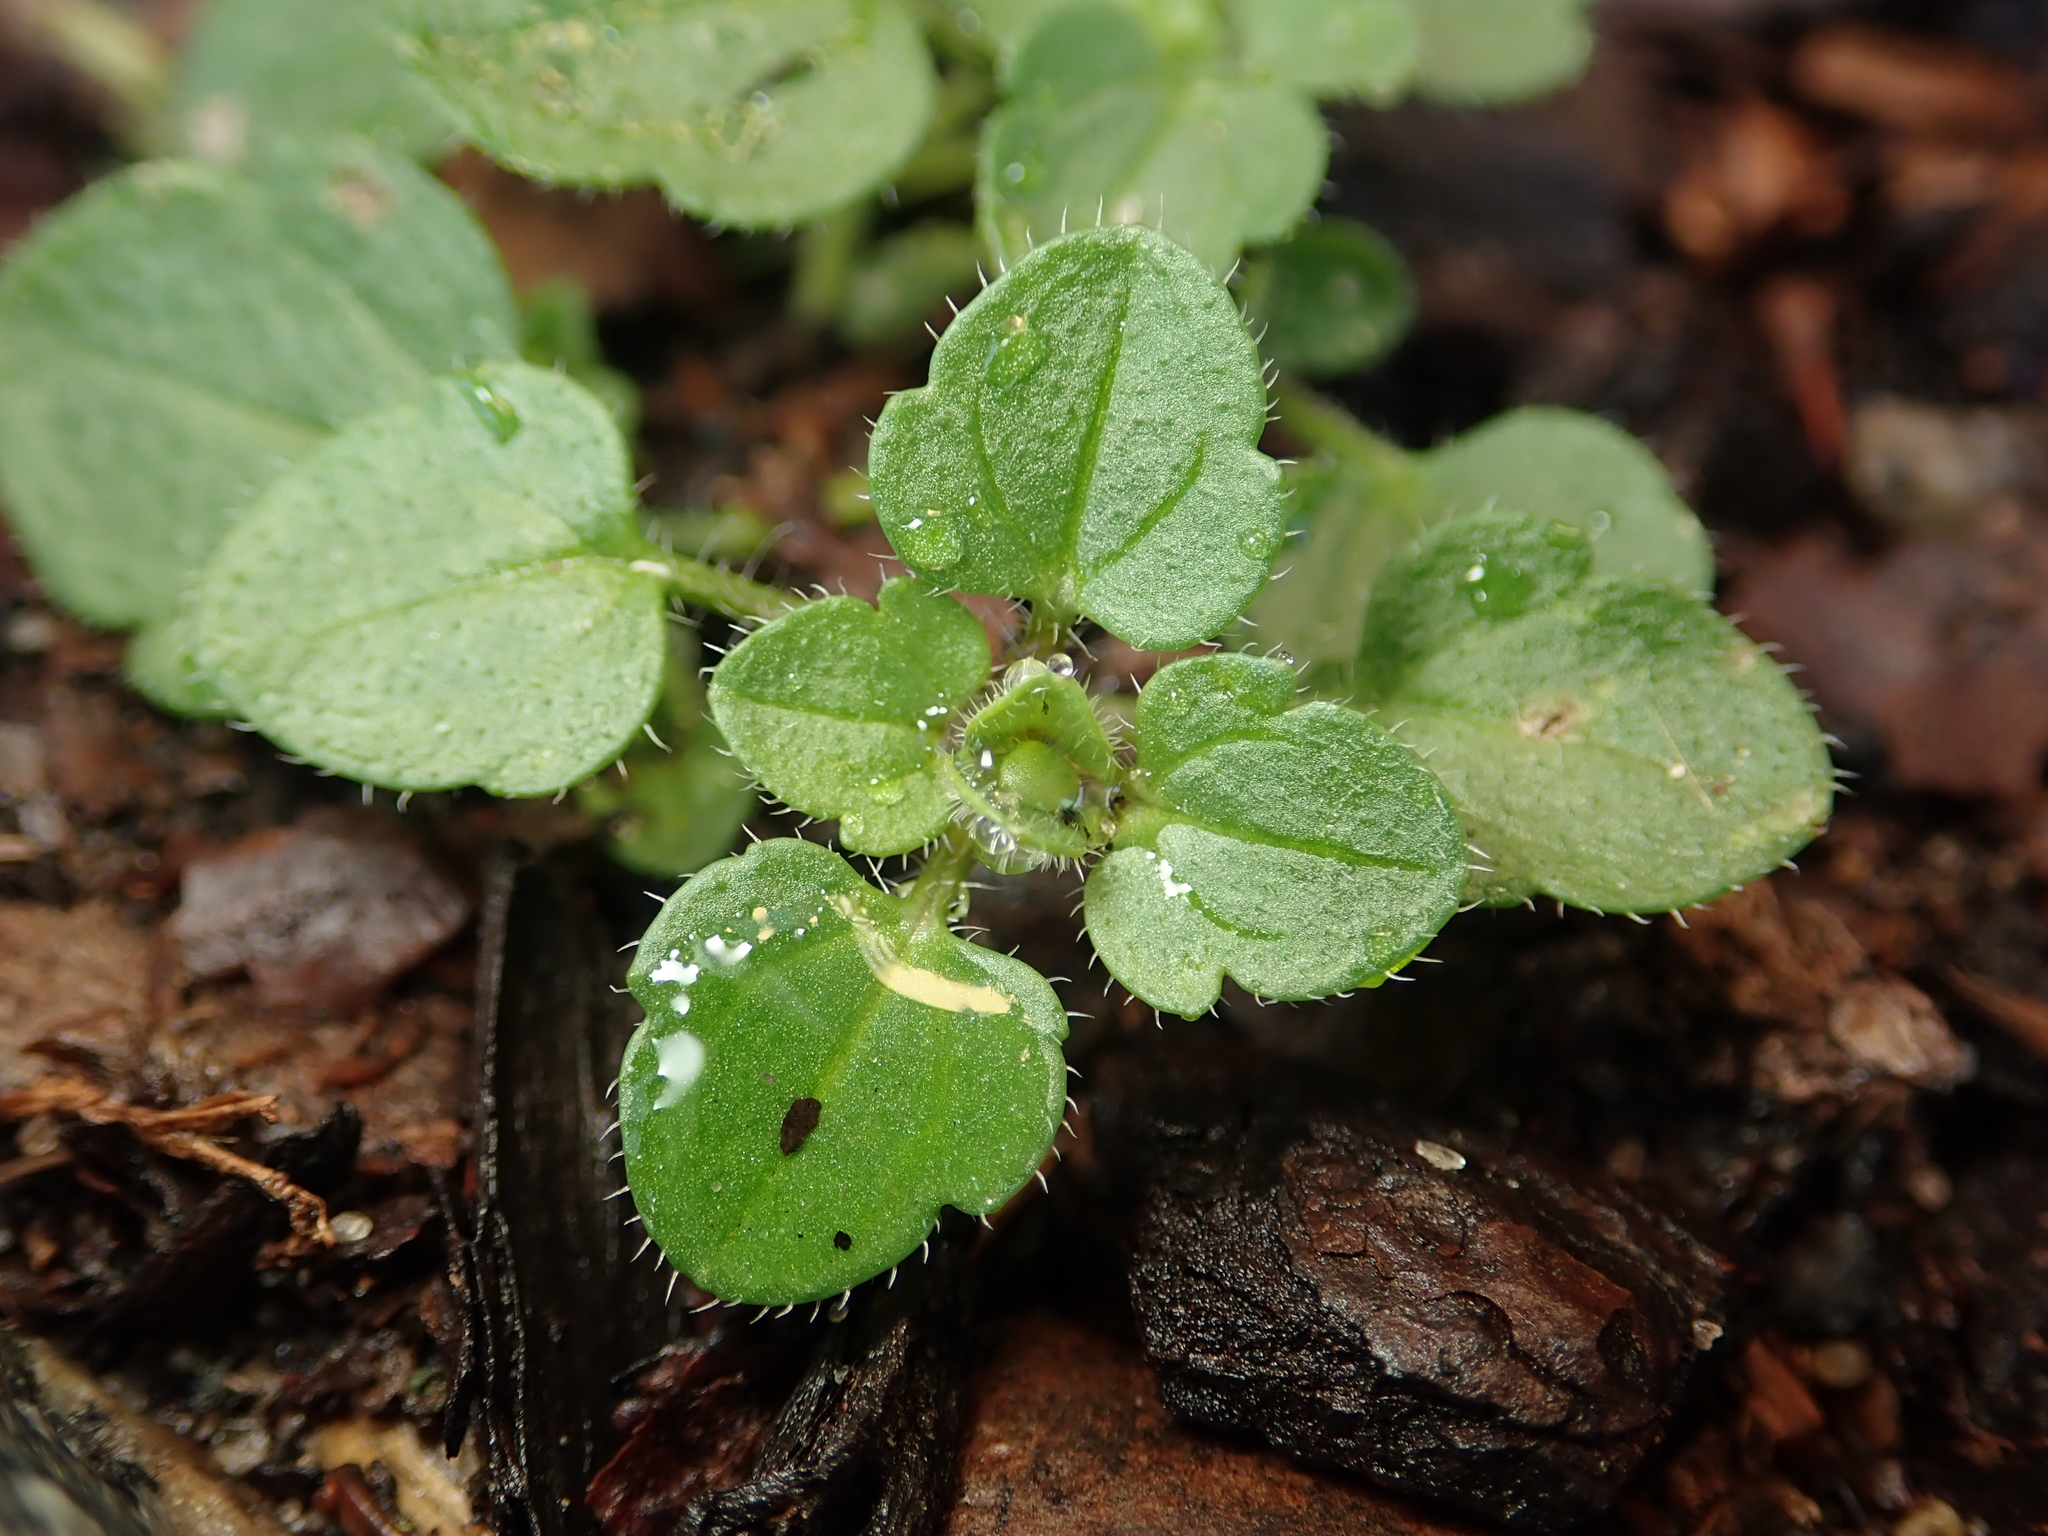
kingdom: Plantae
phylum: Tracheophyta
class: Magnoliopsida
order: Lamiales
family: Plantaginaceae
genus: Veronica
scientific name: Veronica hederifolia
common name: Ivy-leaved speedwell
